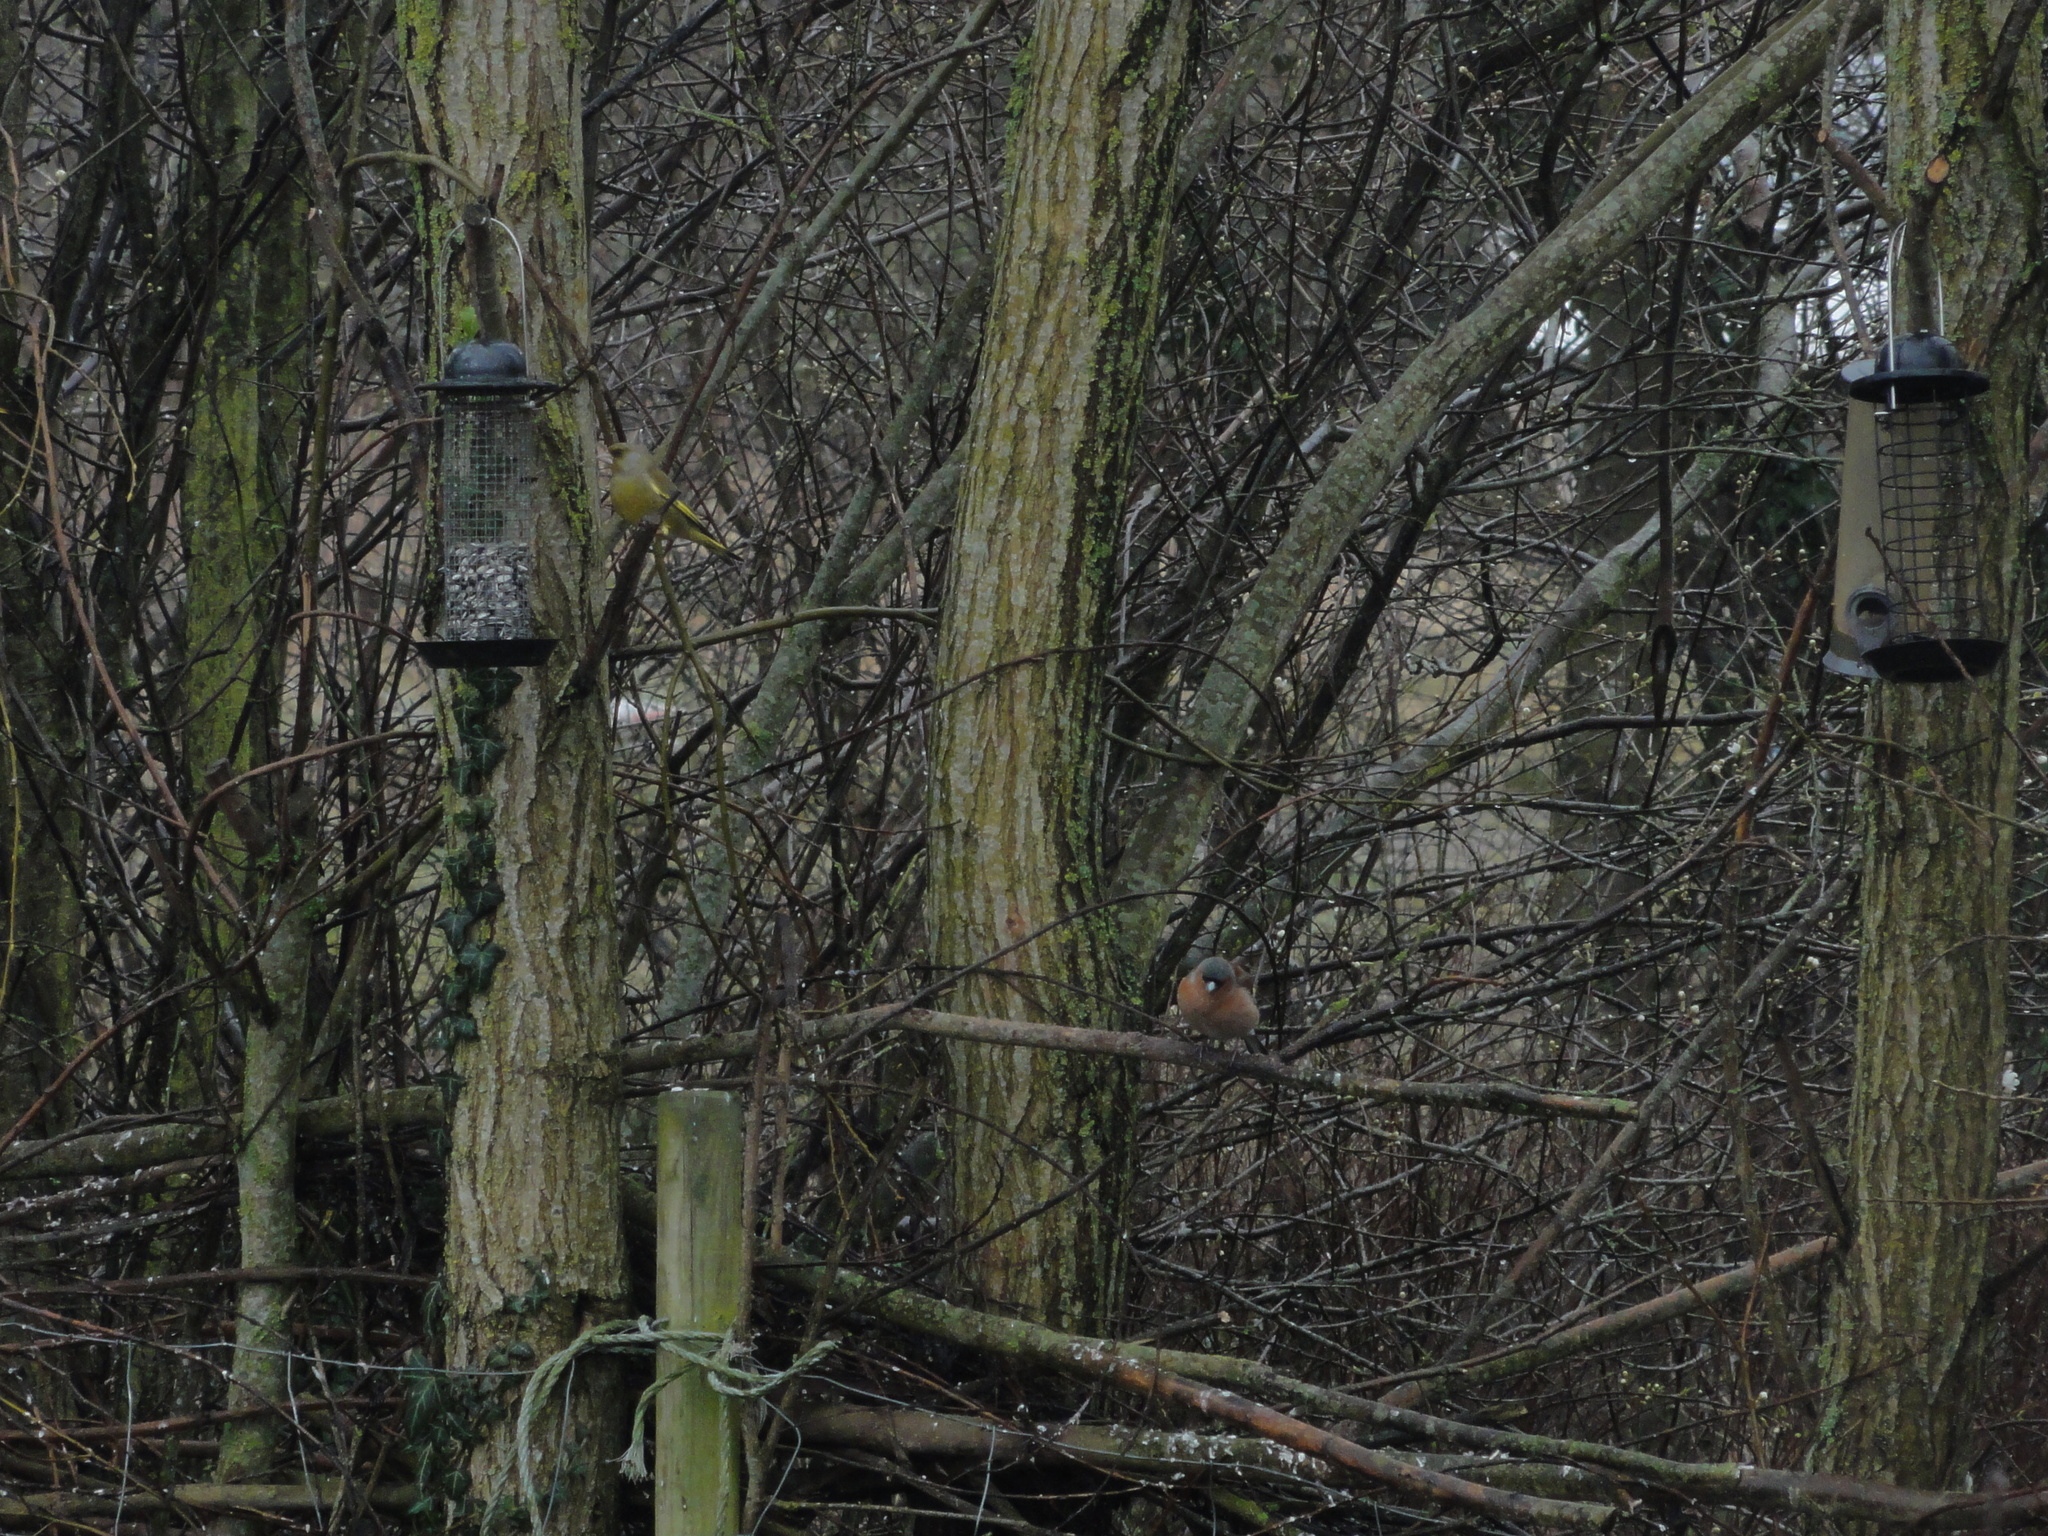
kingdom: Animalia
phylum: Chordata
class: Aves
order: Passeriformes
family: Fringillidae
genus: Fringilla
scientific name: Fringilla coelebs
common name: Common chaffinch
